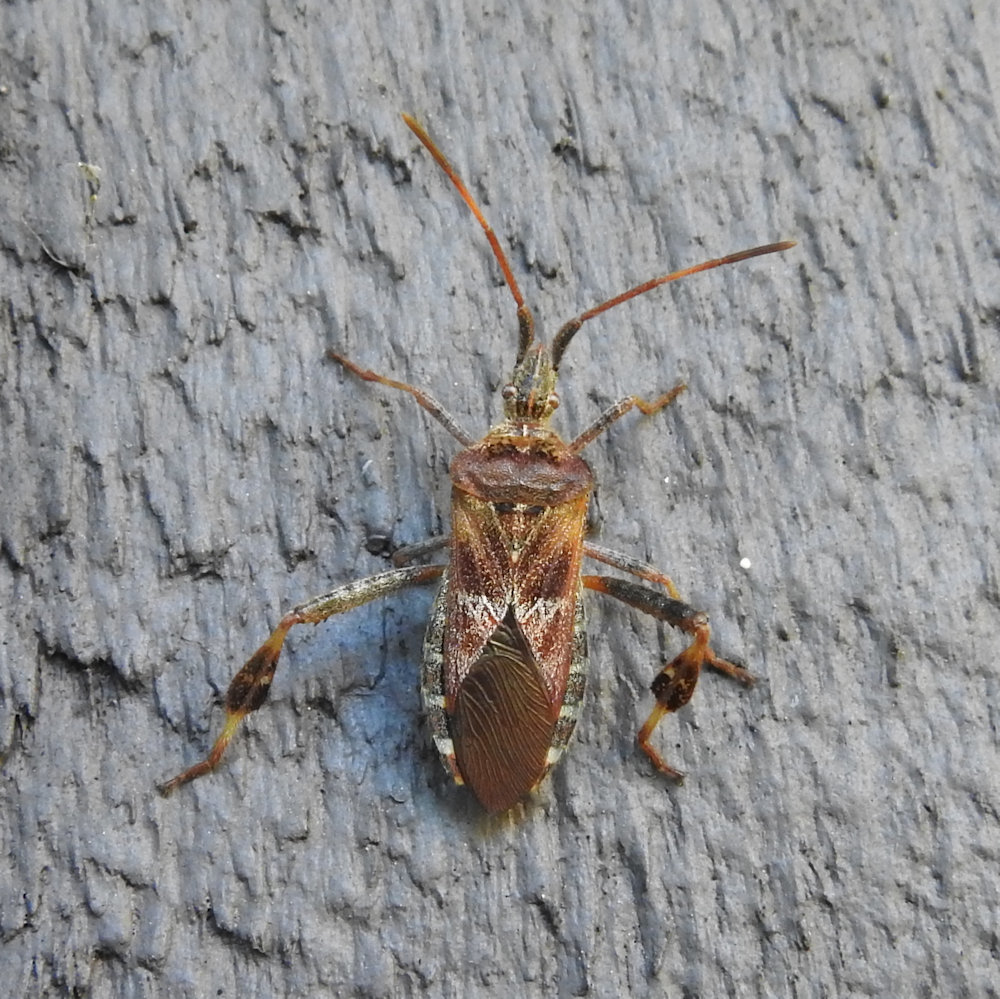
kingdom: Animalia
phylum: Arthropoda
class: Insecta
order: Hemiptera
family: Coreidae
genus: Leptoglossus
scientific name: Leptoglossus occidentalis
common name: Western conifer-seed bug
